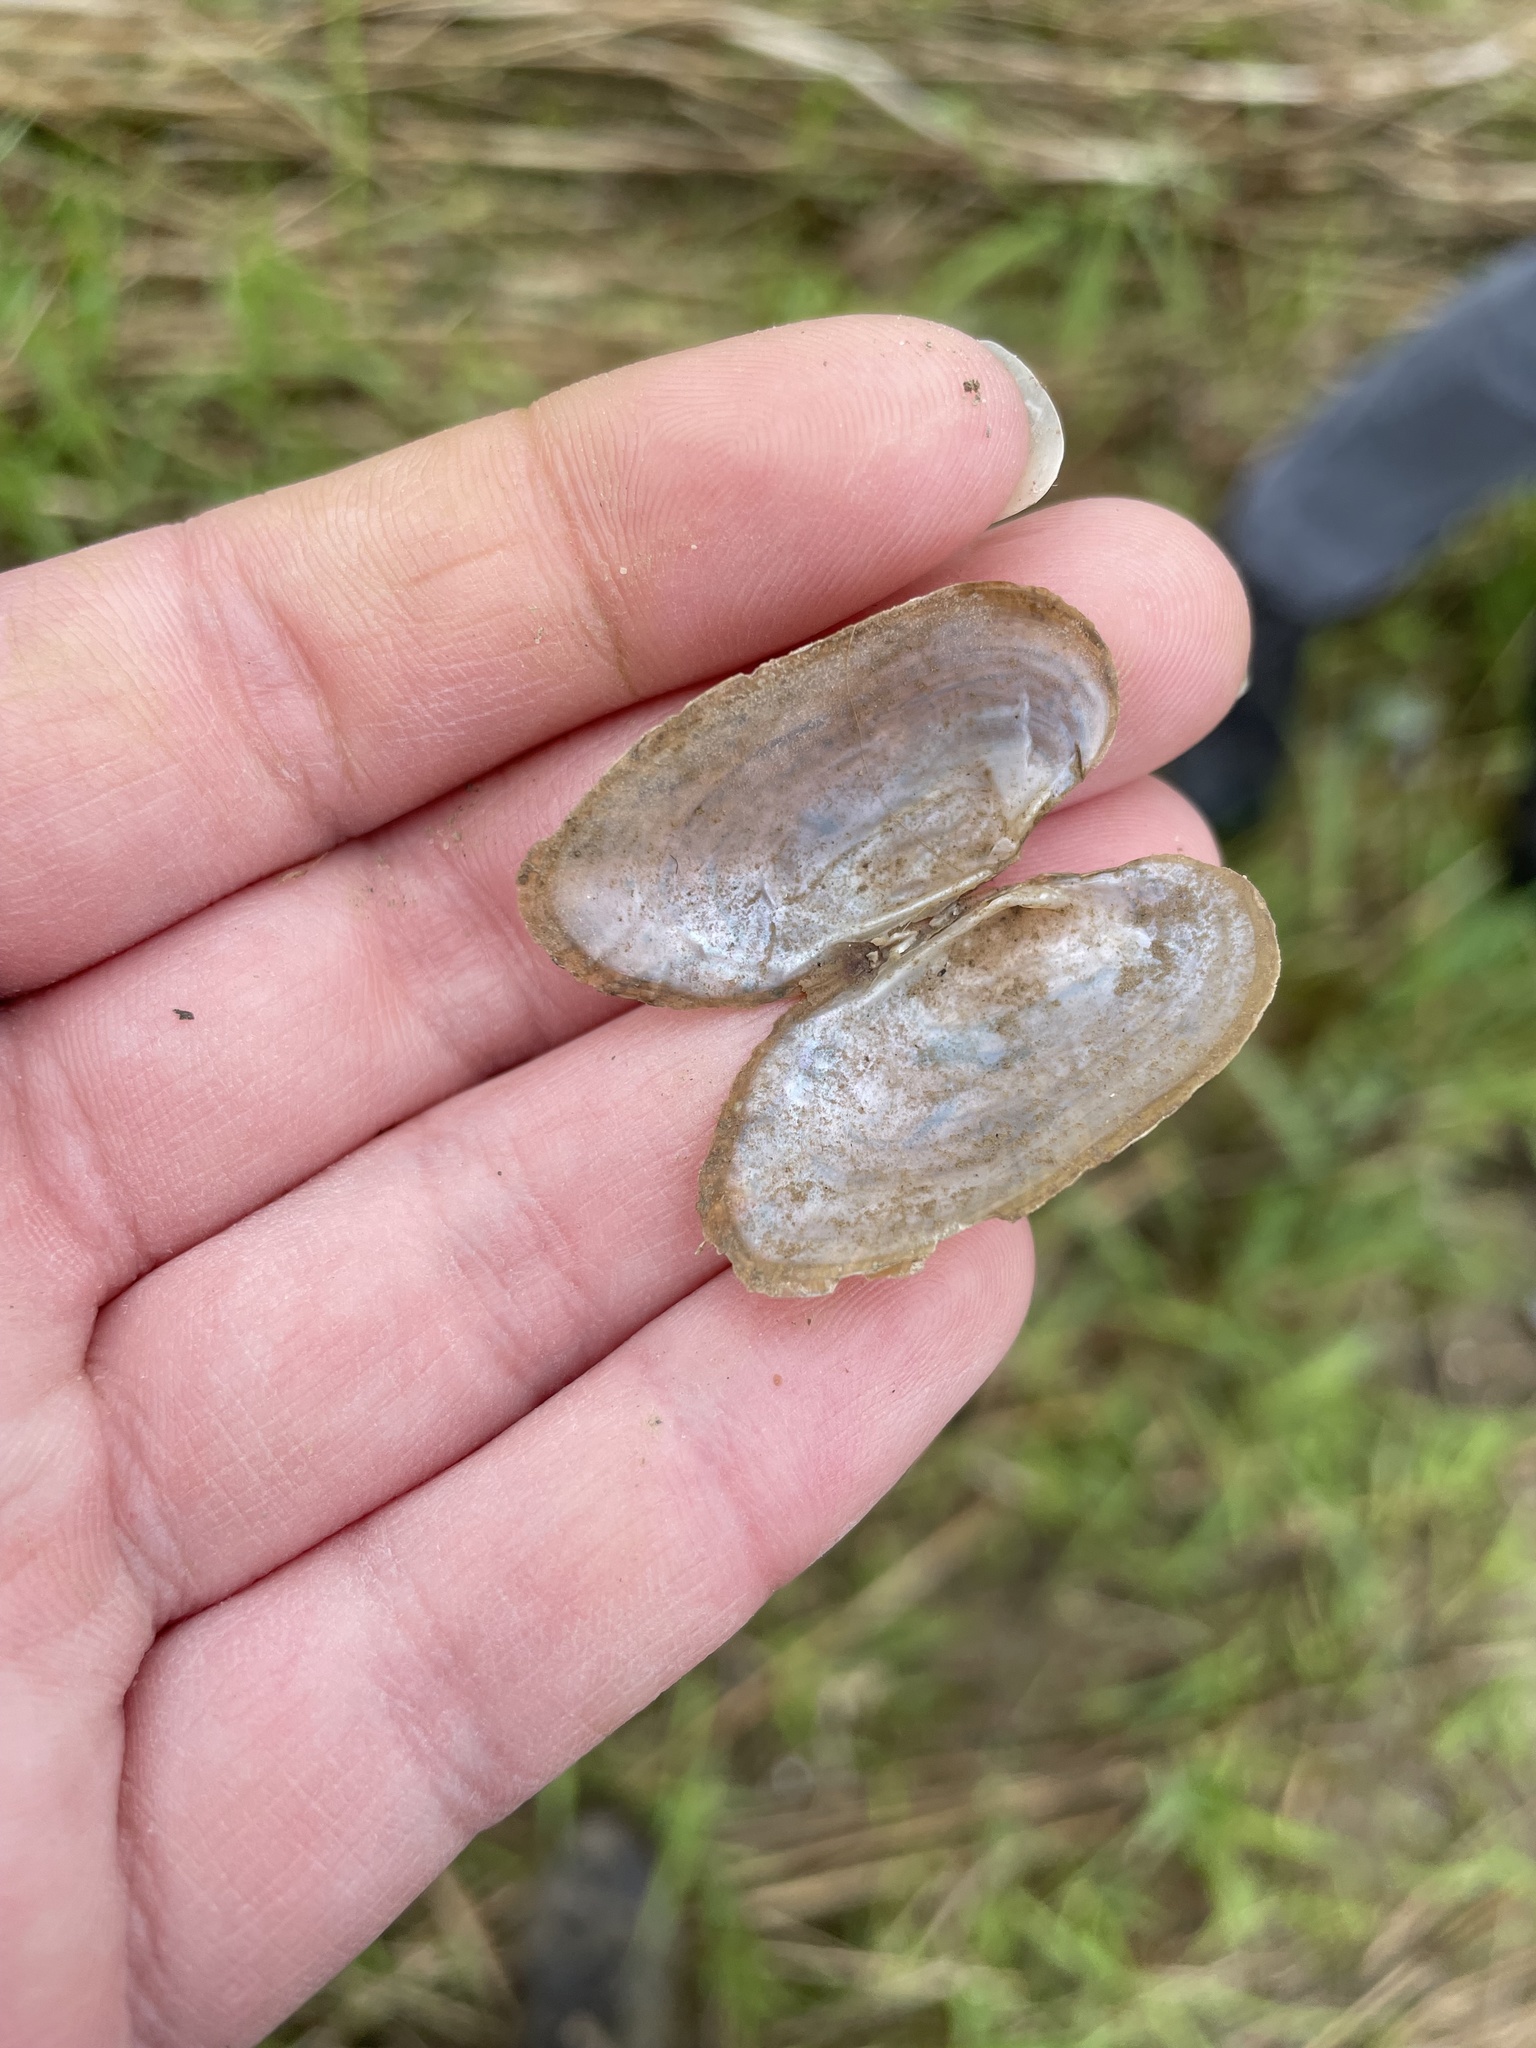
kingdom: Animalia
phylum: Mollusca
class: Bivalvia
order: Unionida
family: Unionidae
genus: Lasmigona
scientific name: Lasmigona costata
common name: Flutedshell
